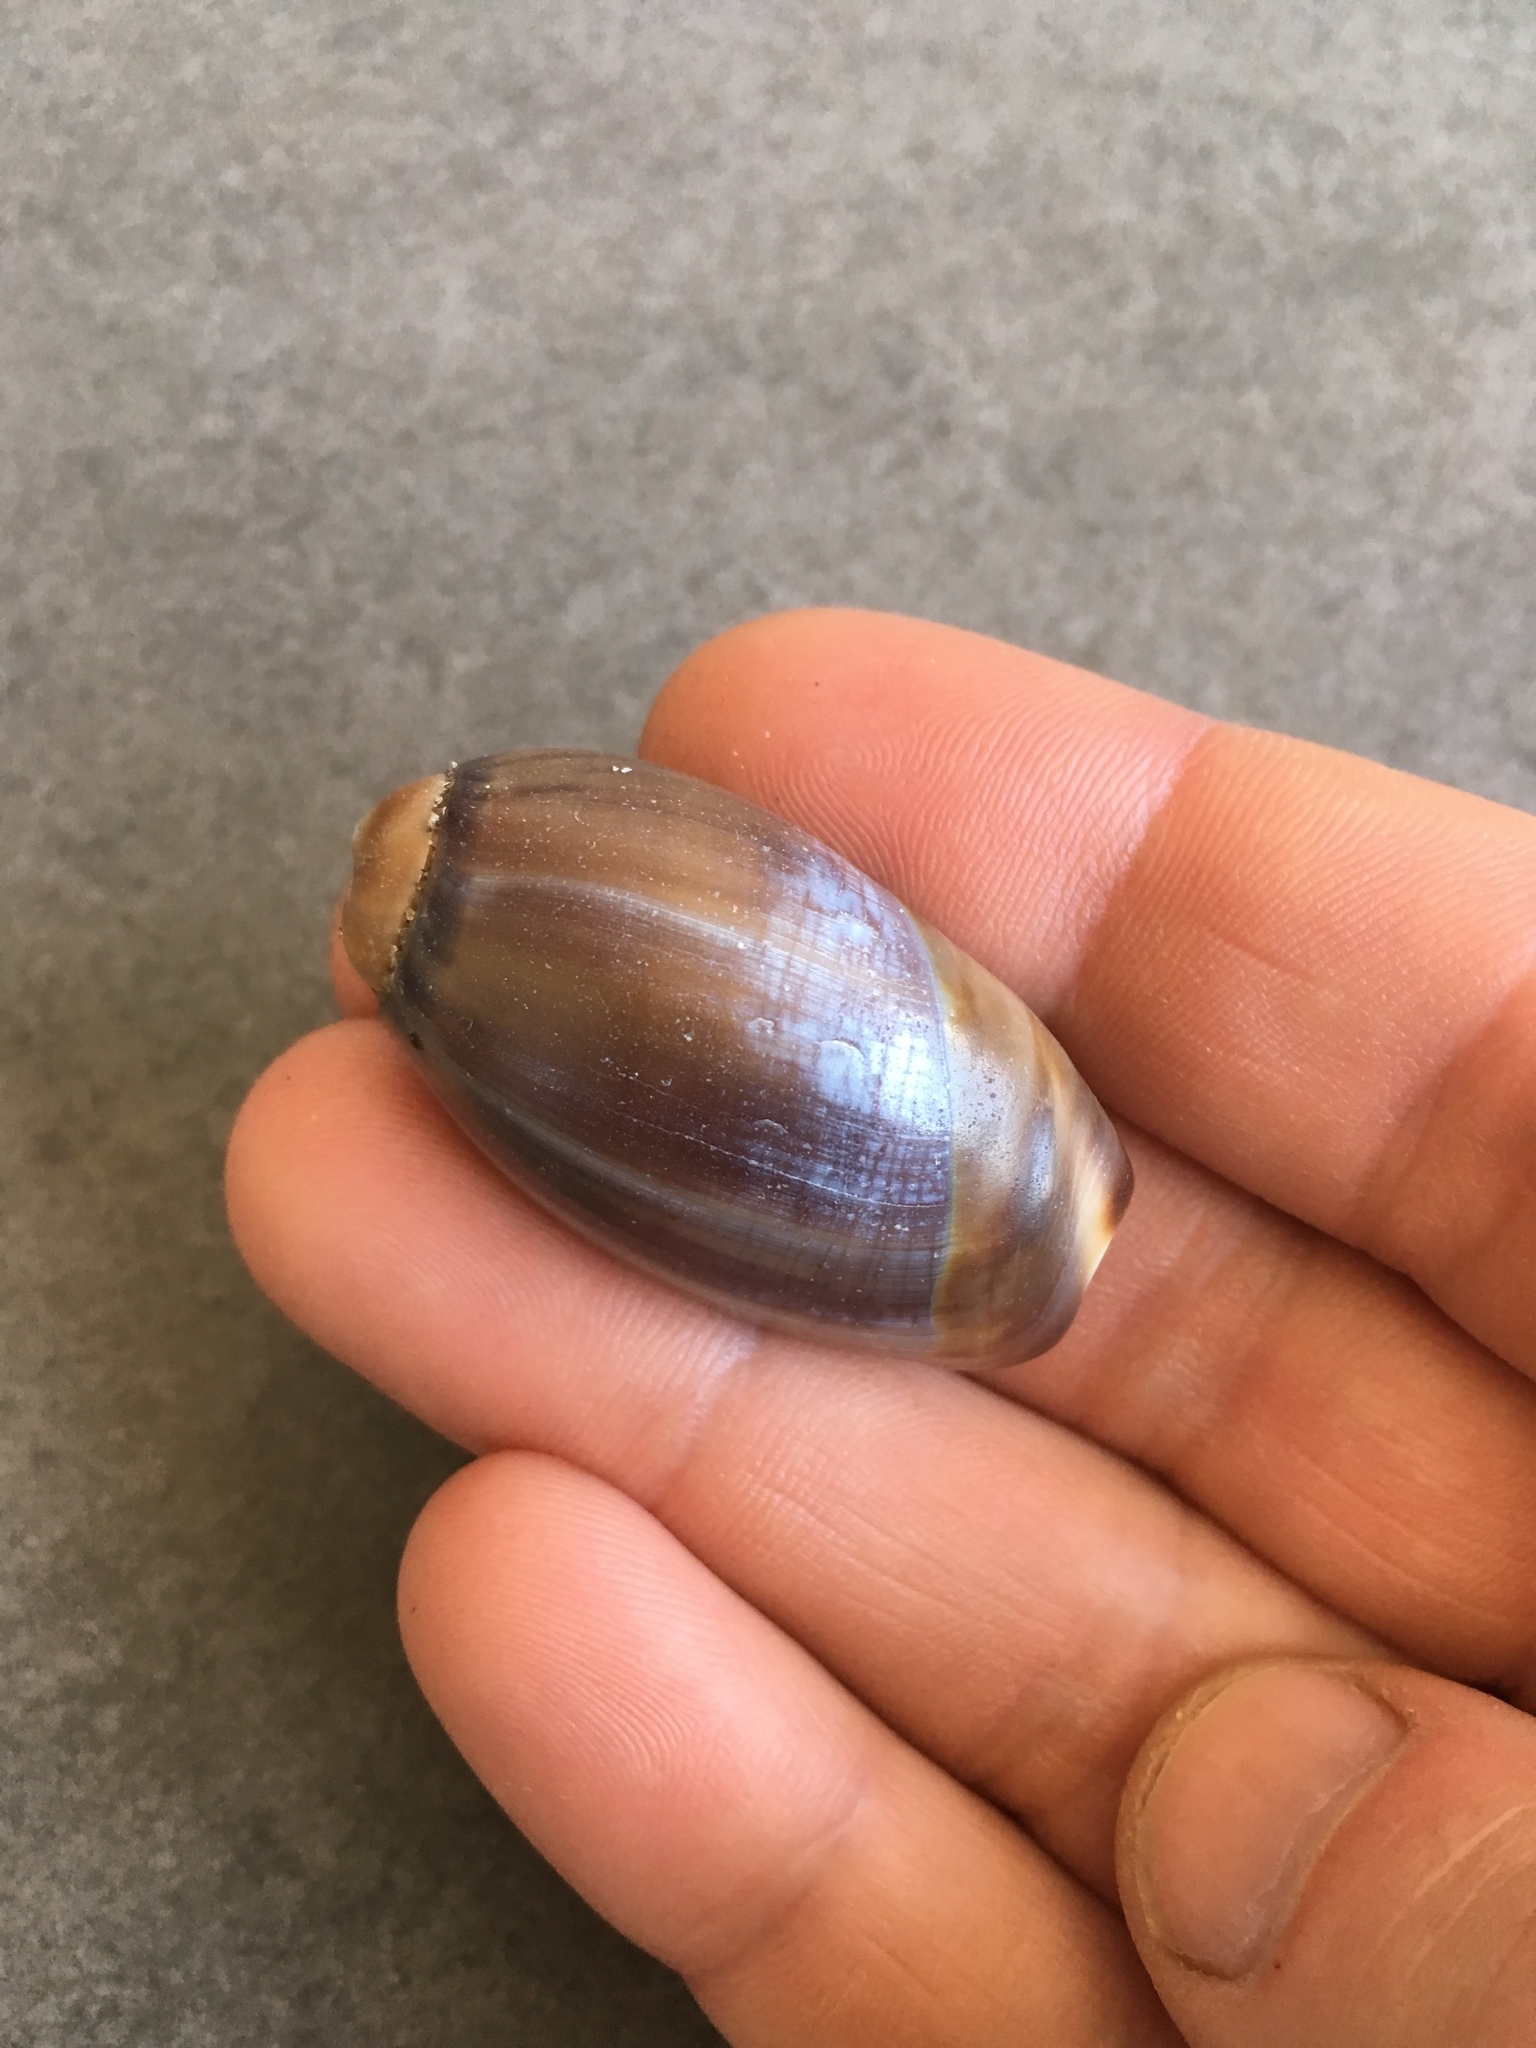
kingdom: Animalia
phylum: Mollusca
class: Gastropoda
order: Neogastropoda
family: Olividae
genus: Olivancillaria
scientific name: Olivancillaria carcellesi
